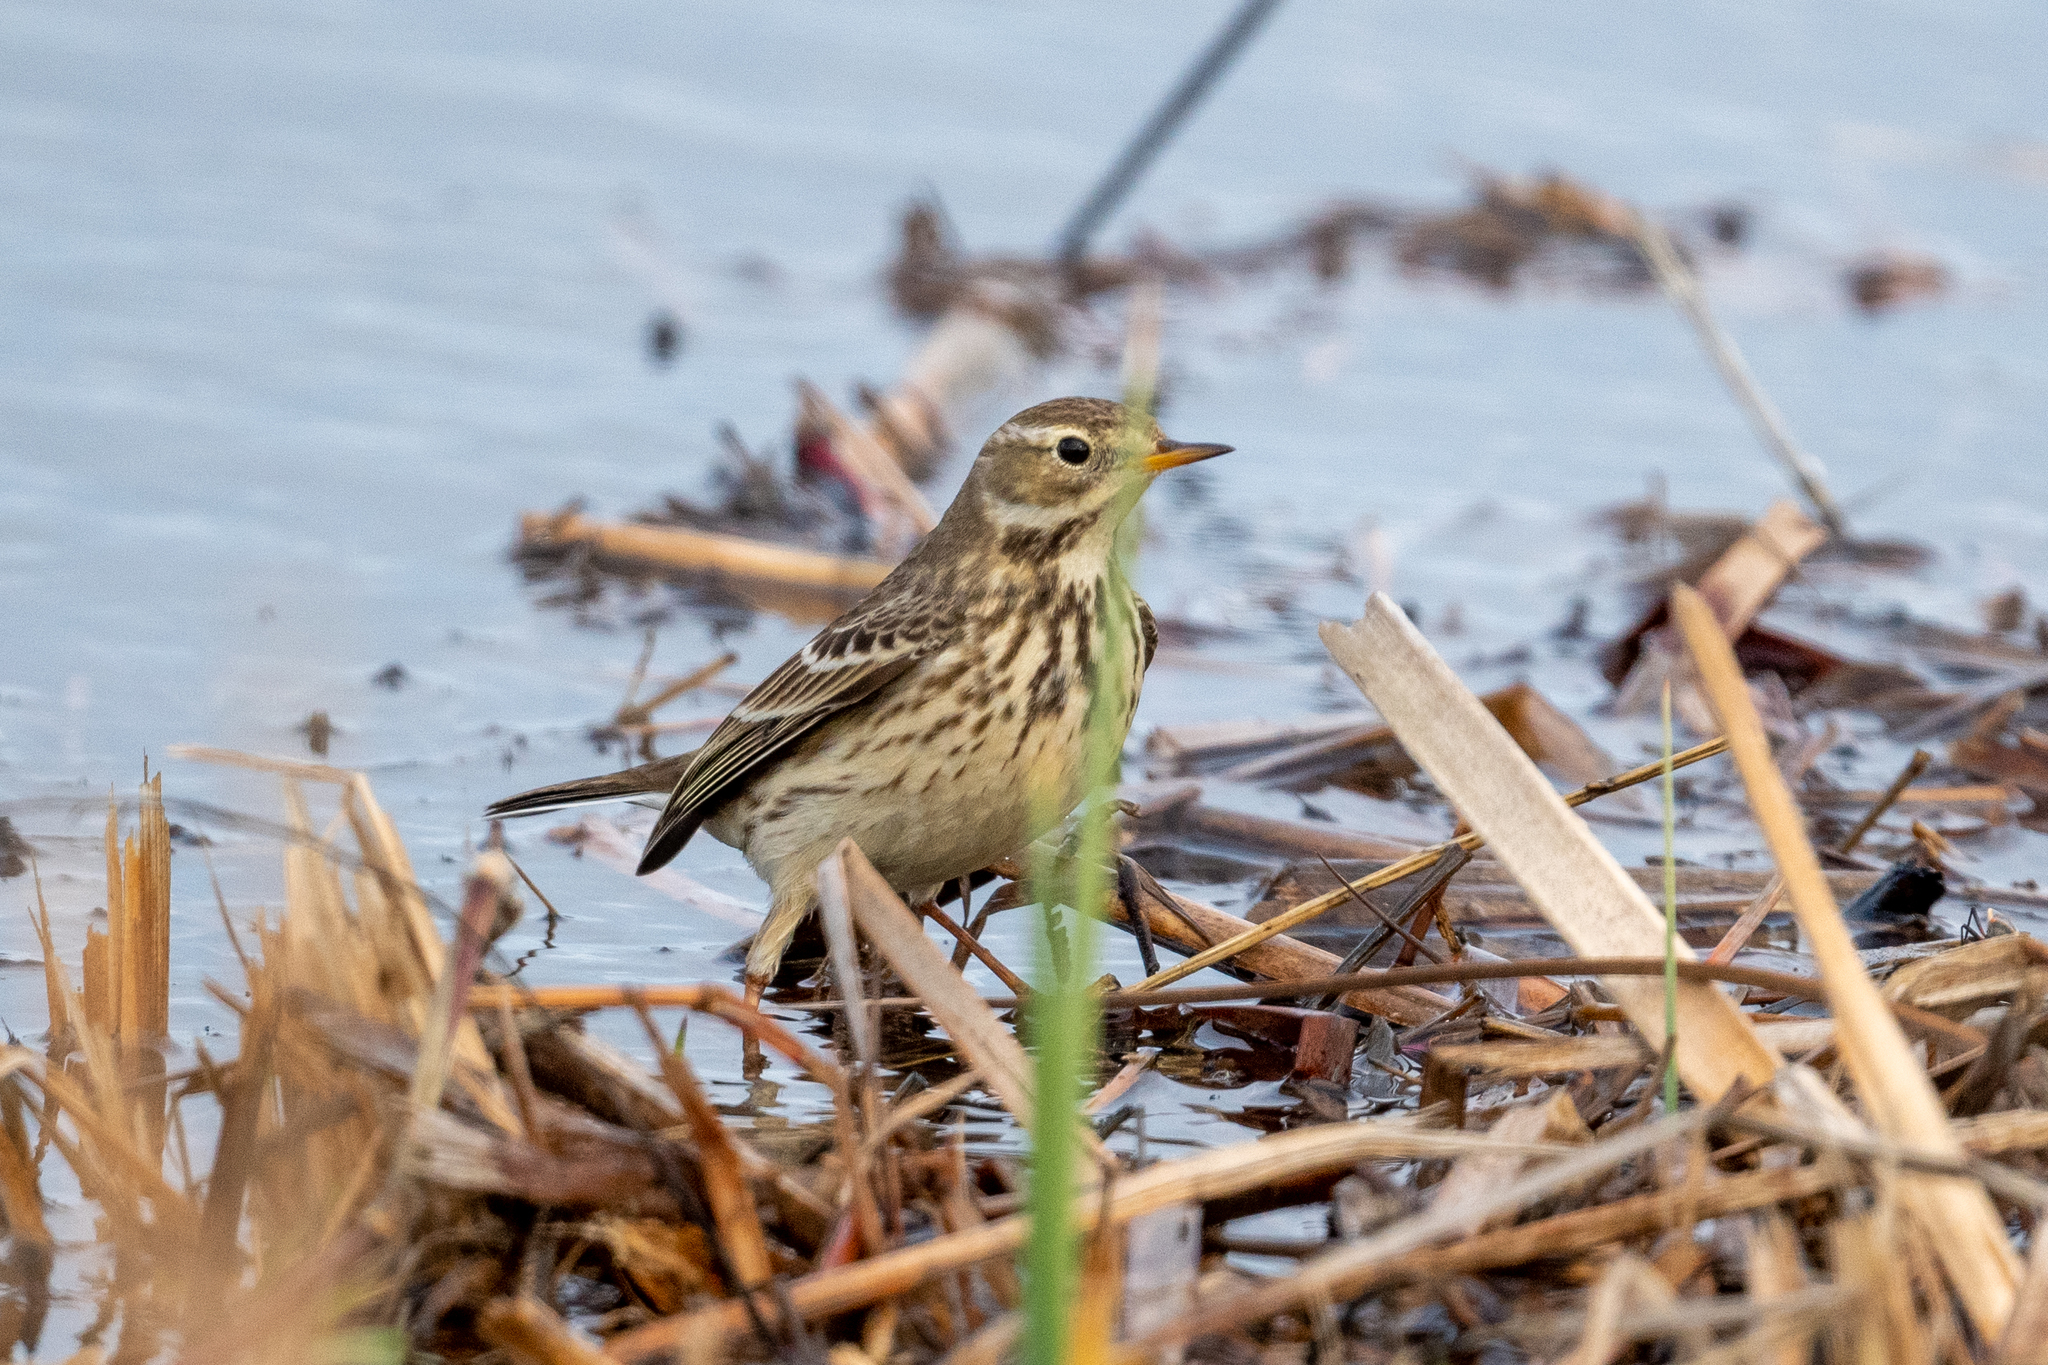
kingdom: Animalia
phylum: Chordata
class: Aves
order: Passeriformes
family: Motacillidae
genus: Anthus
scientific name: Anthus rubescens
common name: Buff-bellied pipit
